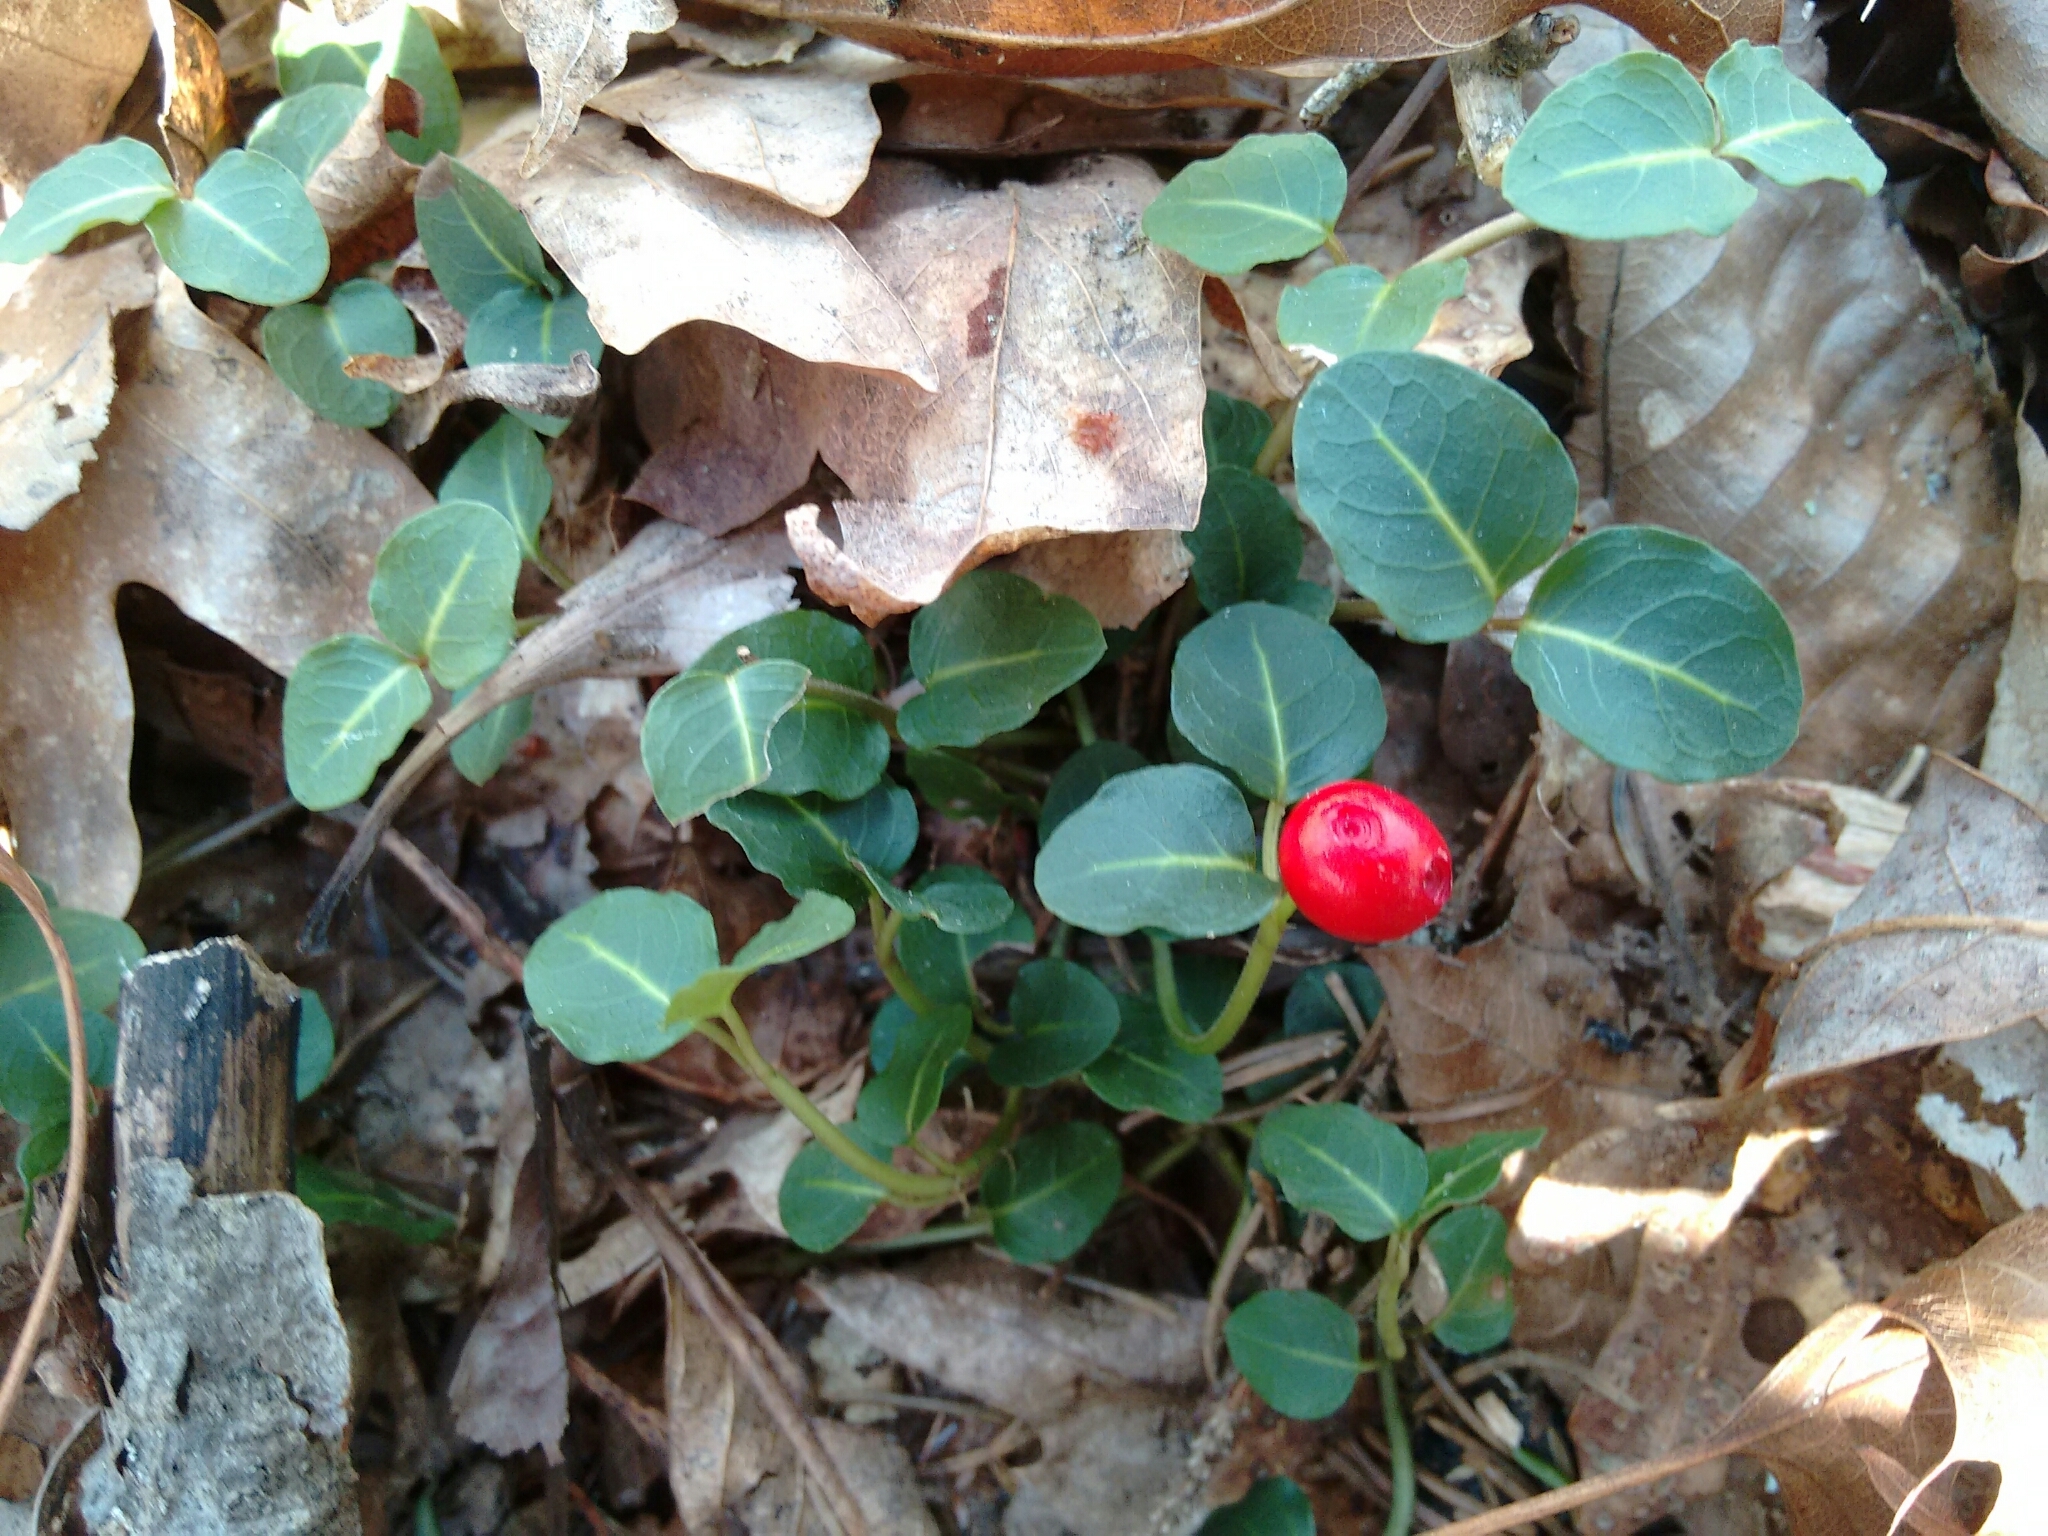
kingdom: Plantae
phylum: Tracheophyta
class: Magnoliopsida
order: Gentianales
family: Rubiaceae
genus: Mitchella
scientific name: Mitchella repens
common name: Partridge-berry
